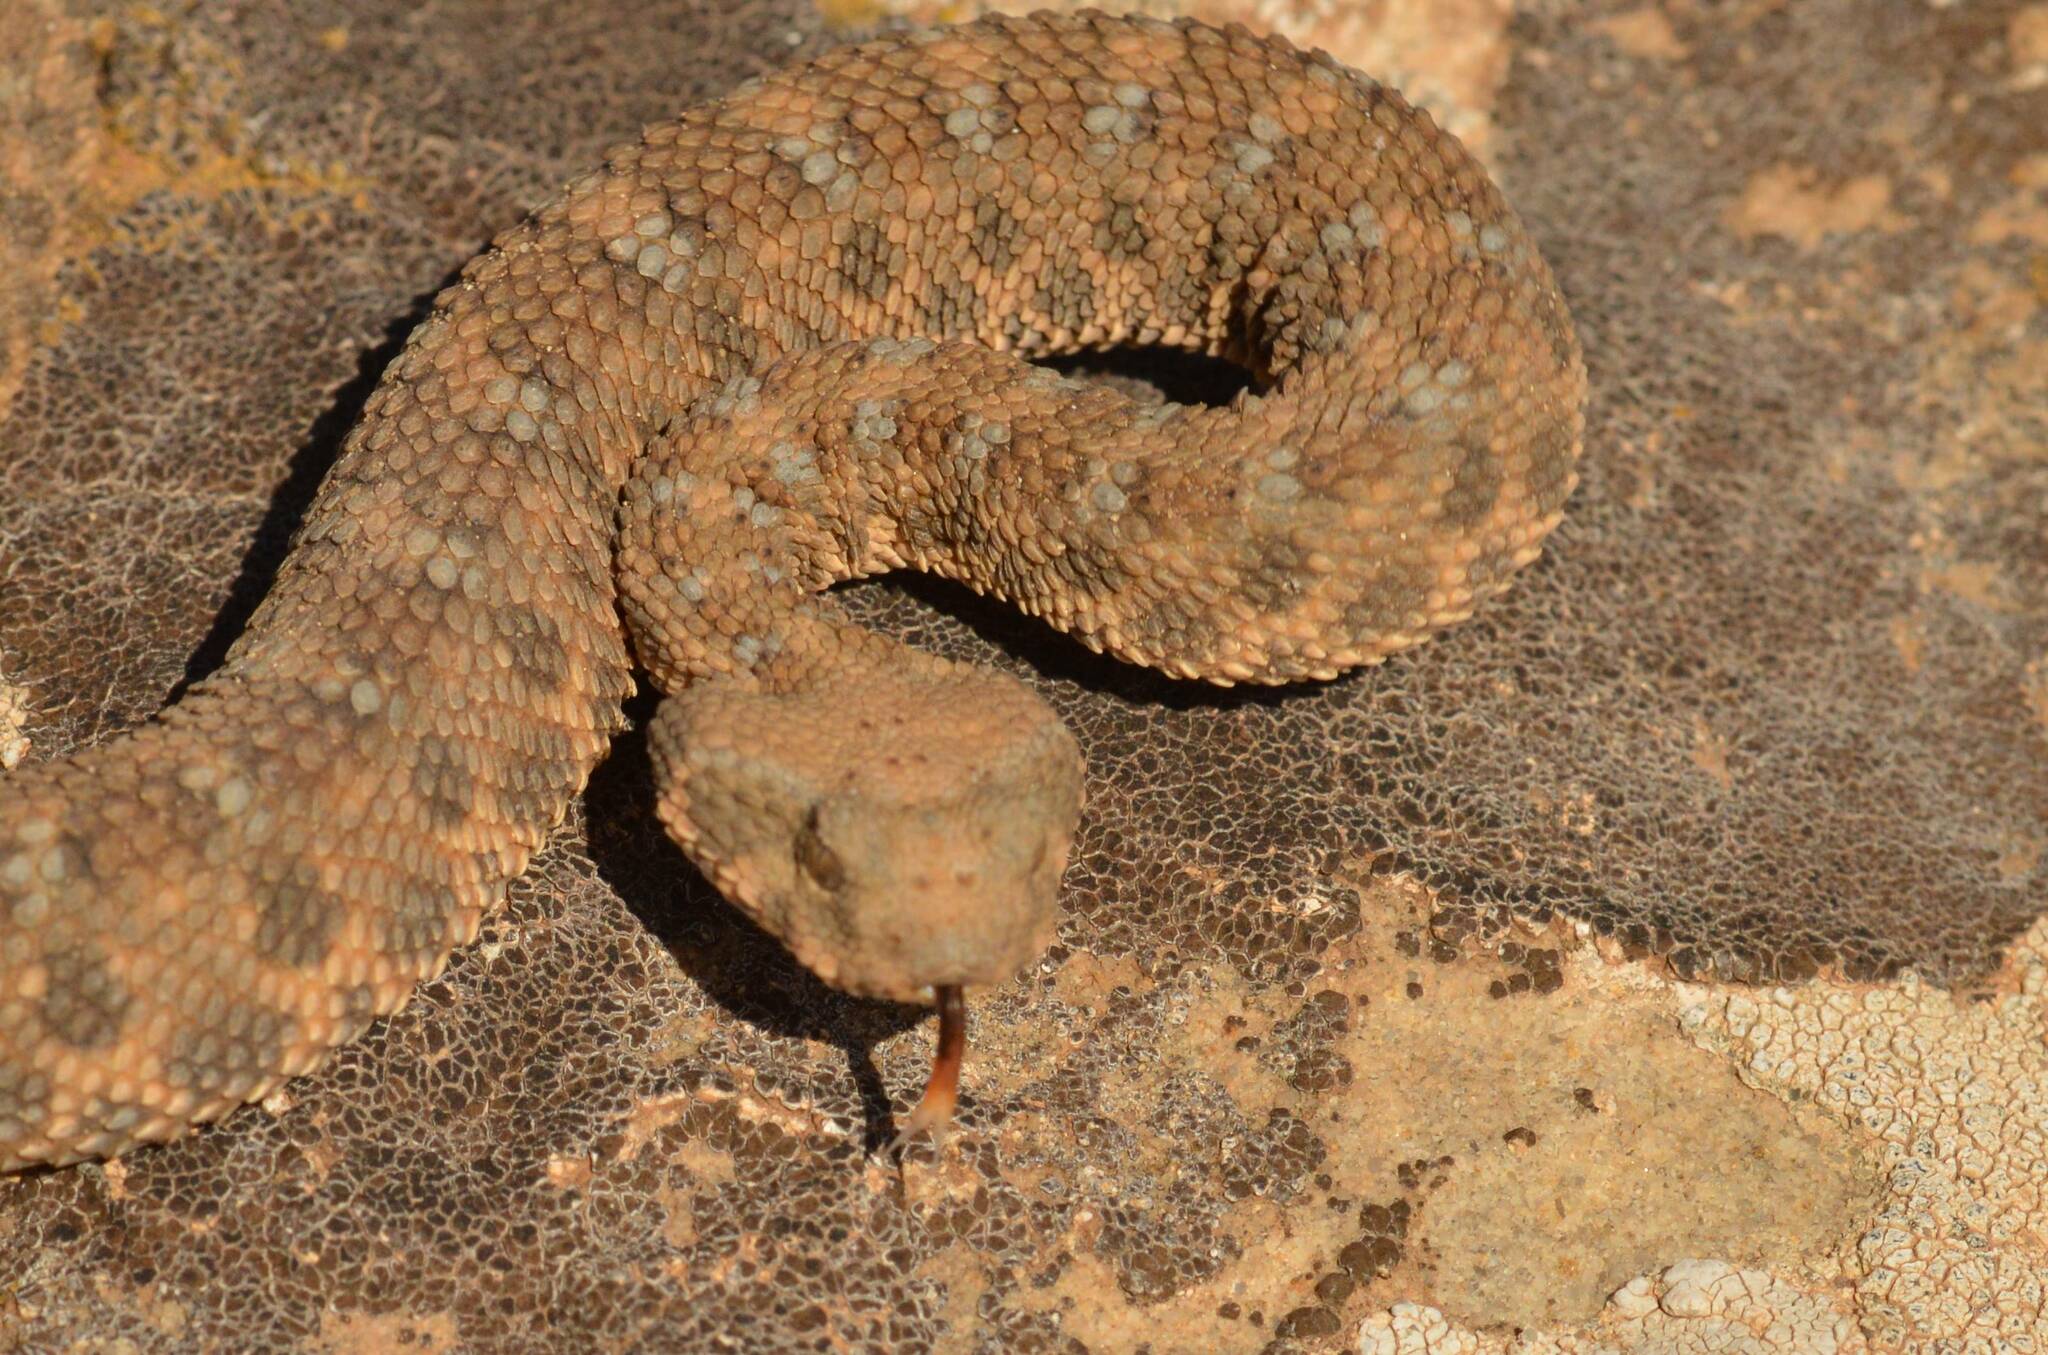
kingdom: Animalia
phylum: Chordata
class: Squamata
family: Viperidae
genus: Cerastes
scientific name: Cerastes cerastes
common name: Desert horned viper
